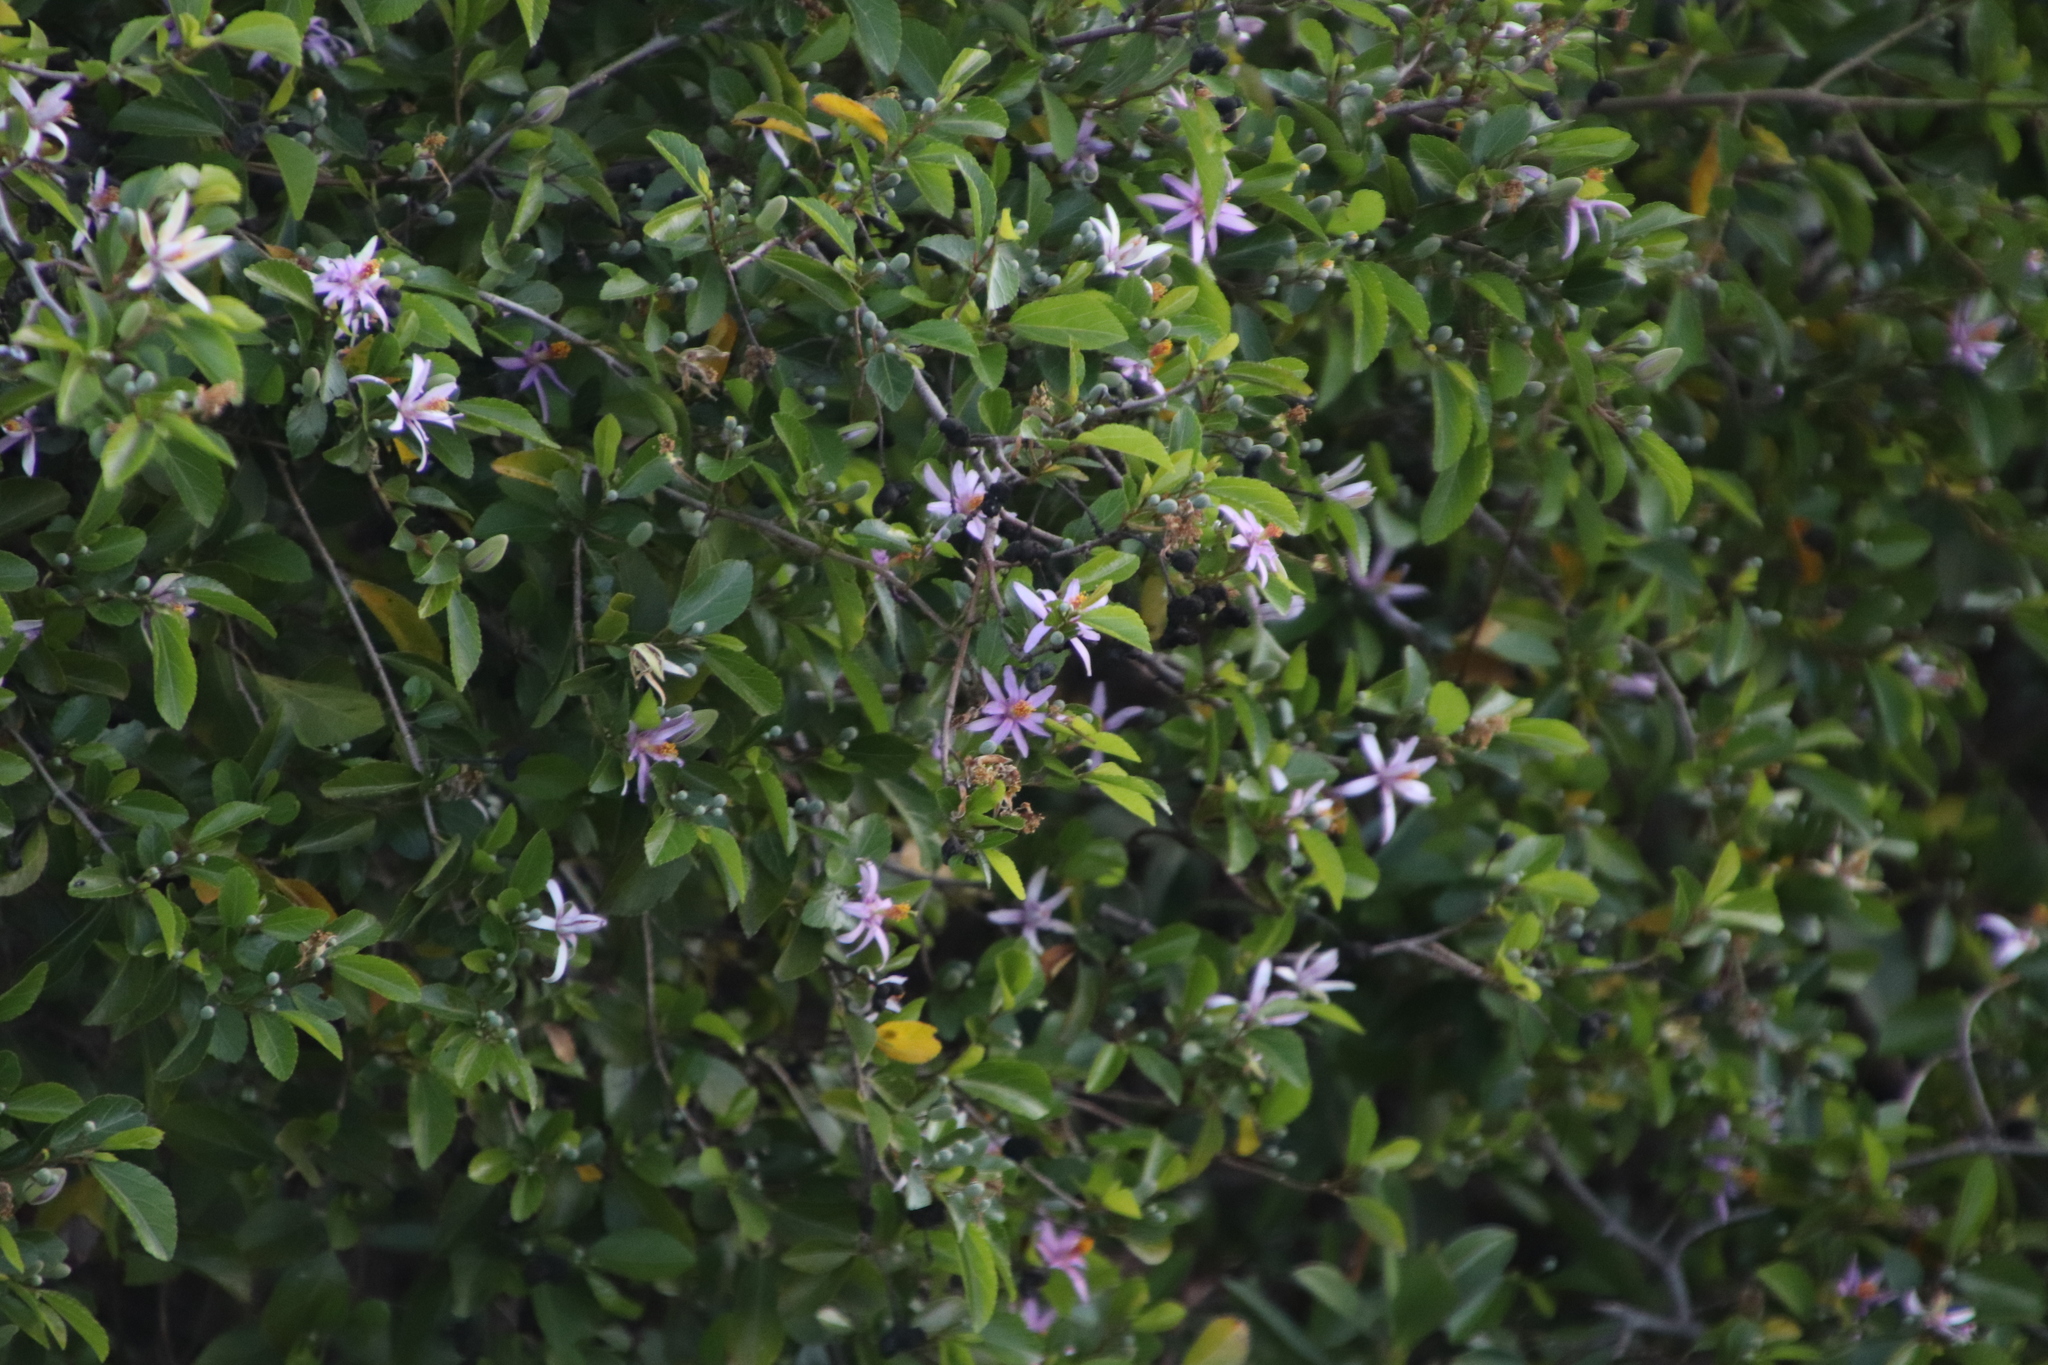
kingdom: Plantae
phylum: Tracheophyta
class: Magnoliopsida
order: Malvales
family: Malvaceae
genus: Grewia
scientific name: Grewia occidentalis
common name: Crossberry
